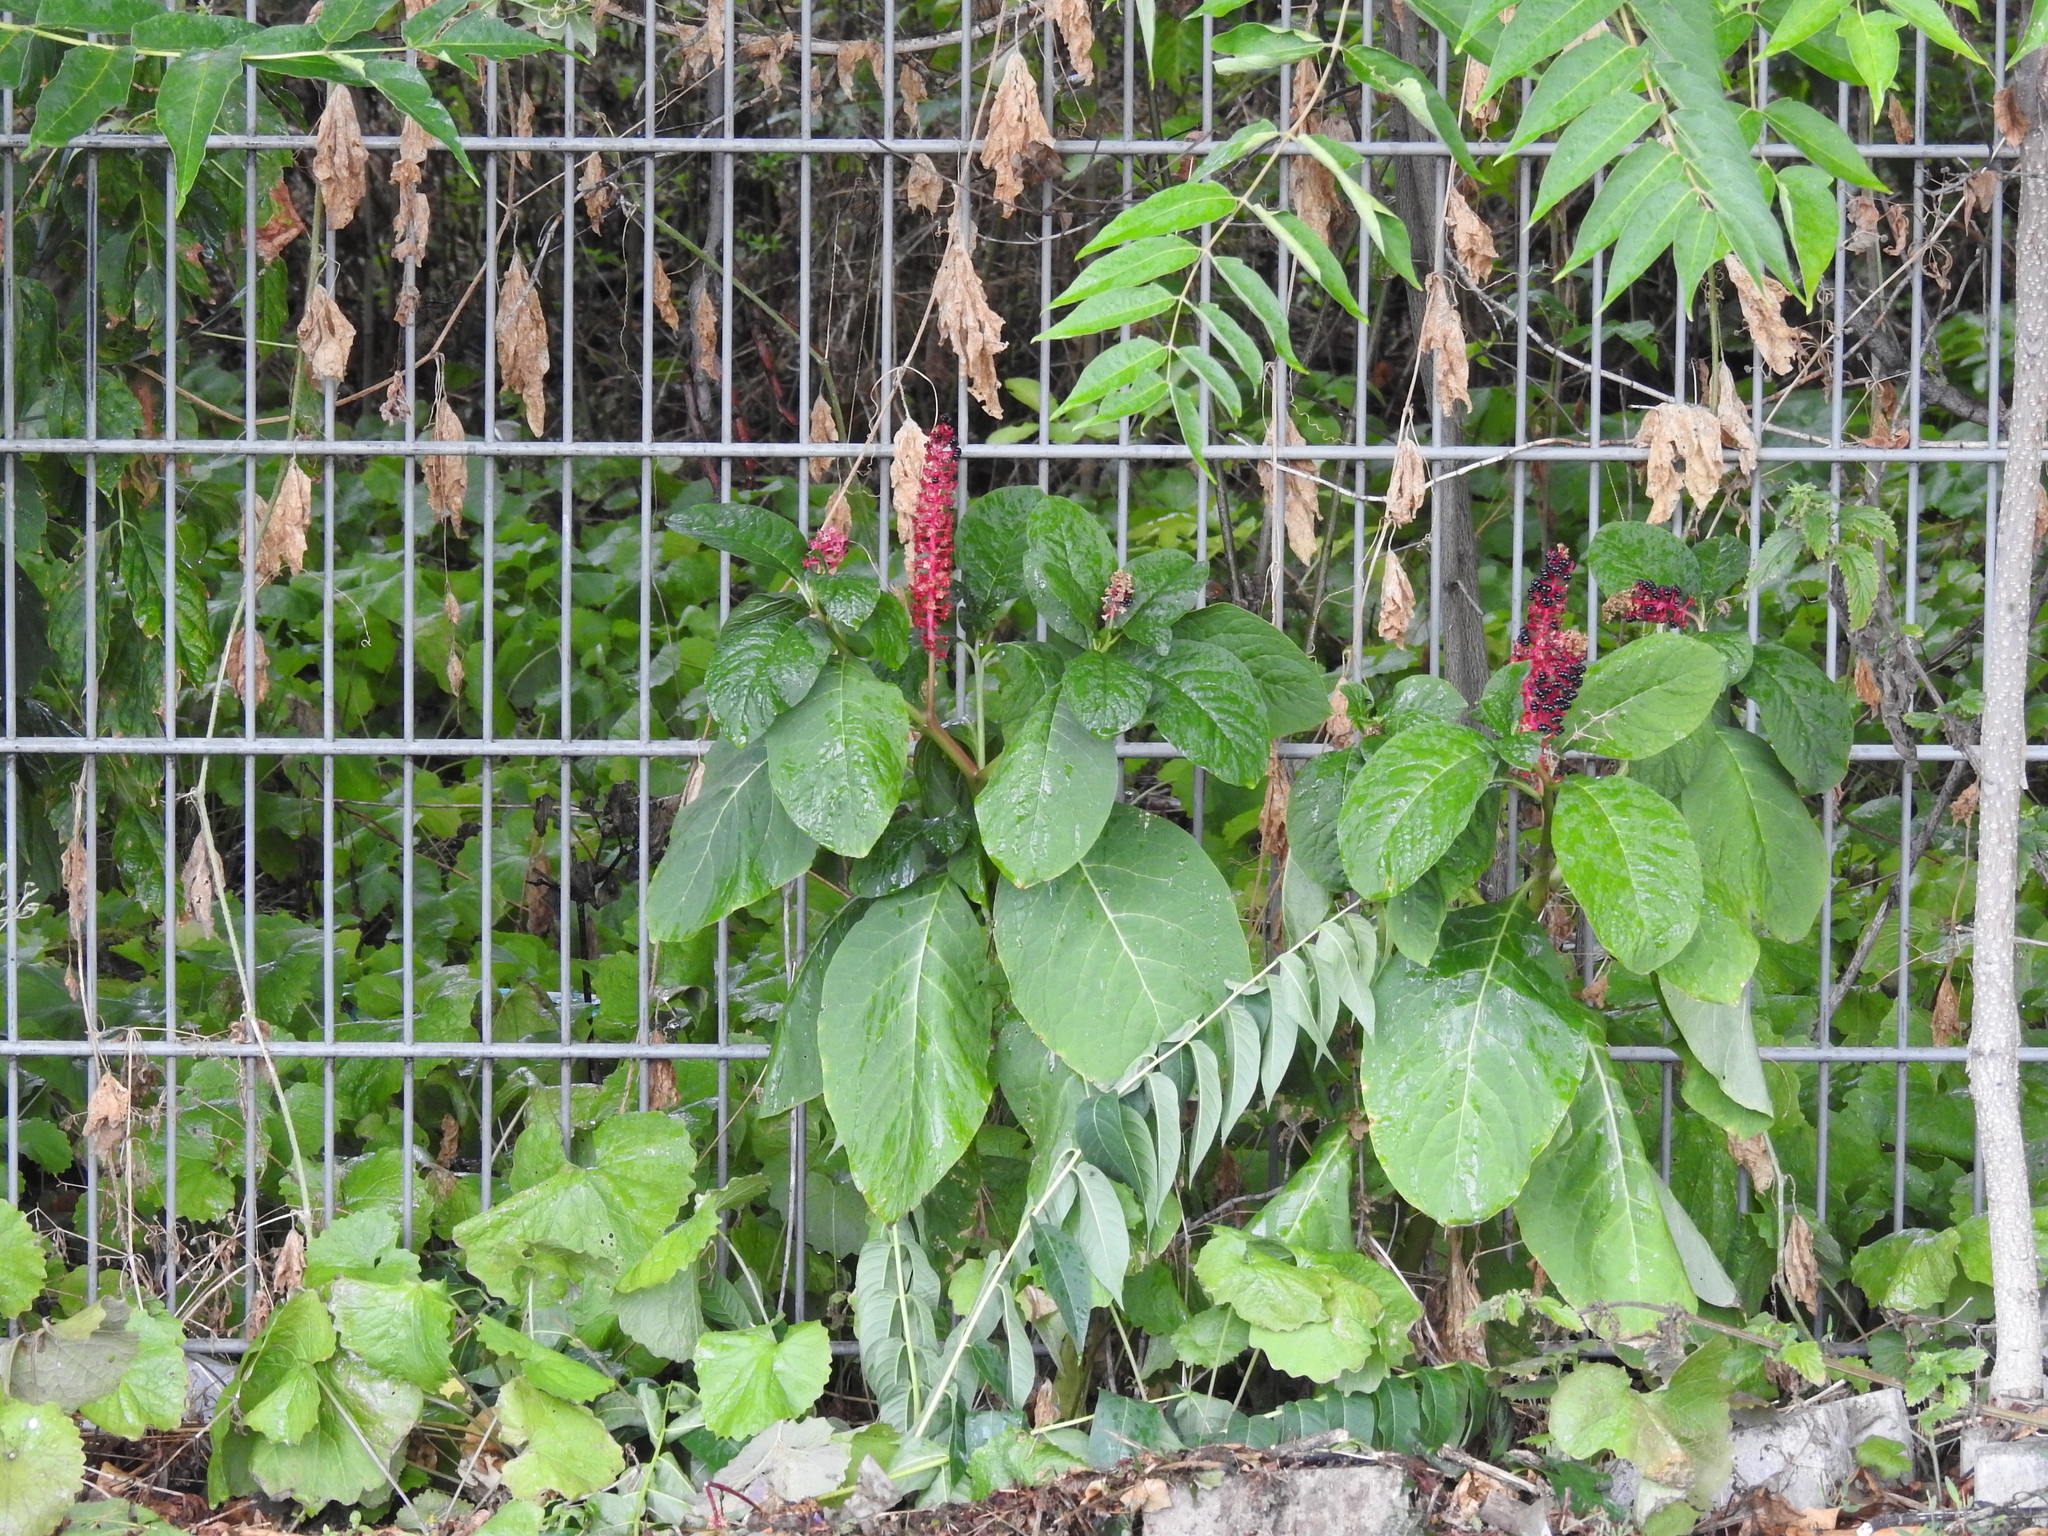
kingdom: Plantae
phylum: Tracheophyta
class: Magnoliopsida
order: Caryophyllales
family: Phytolaccaceae
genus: Phytolacca
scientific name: Phytolacca acinosa
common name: Indian pokeweed
